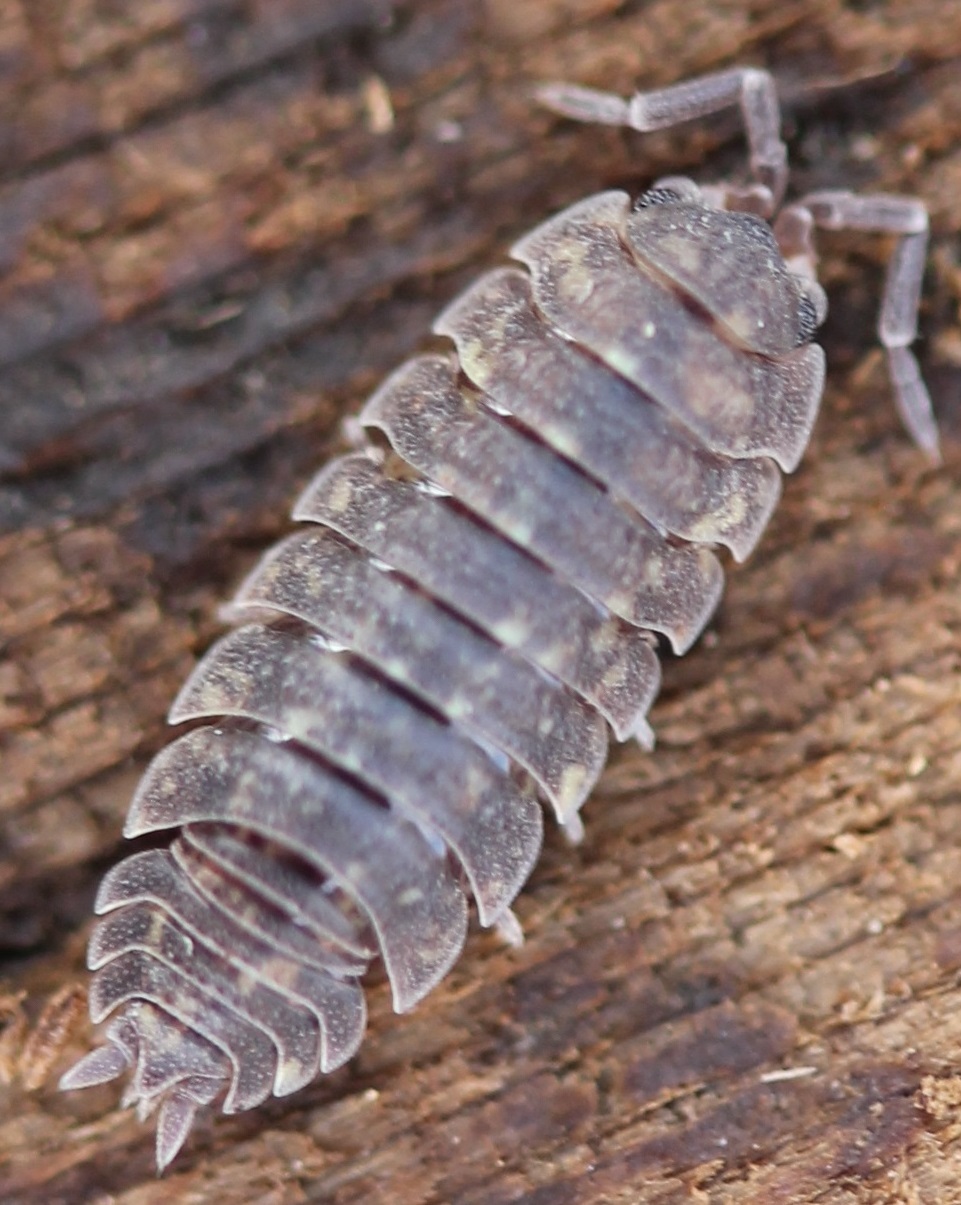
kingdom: Animalia
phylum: Arthropoda
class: Malacostraca
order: Isopoda
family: Porcellionidae
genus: Porcellio
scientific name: Porcellio scaber
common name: Common rough woodlouse
